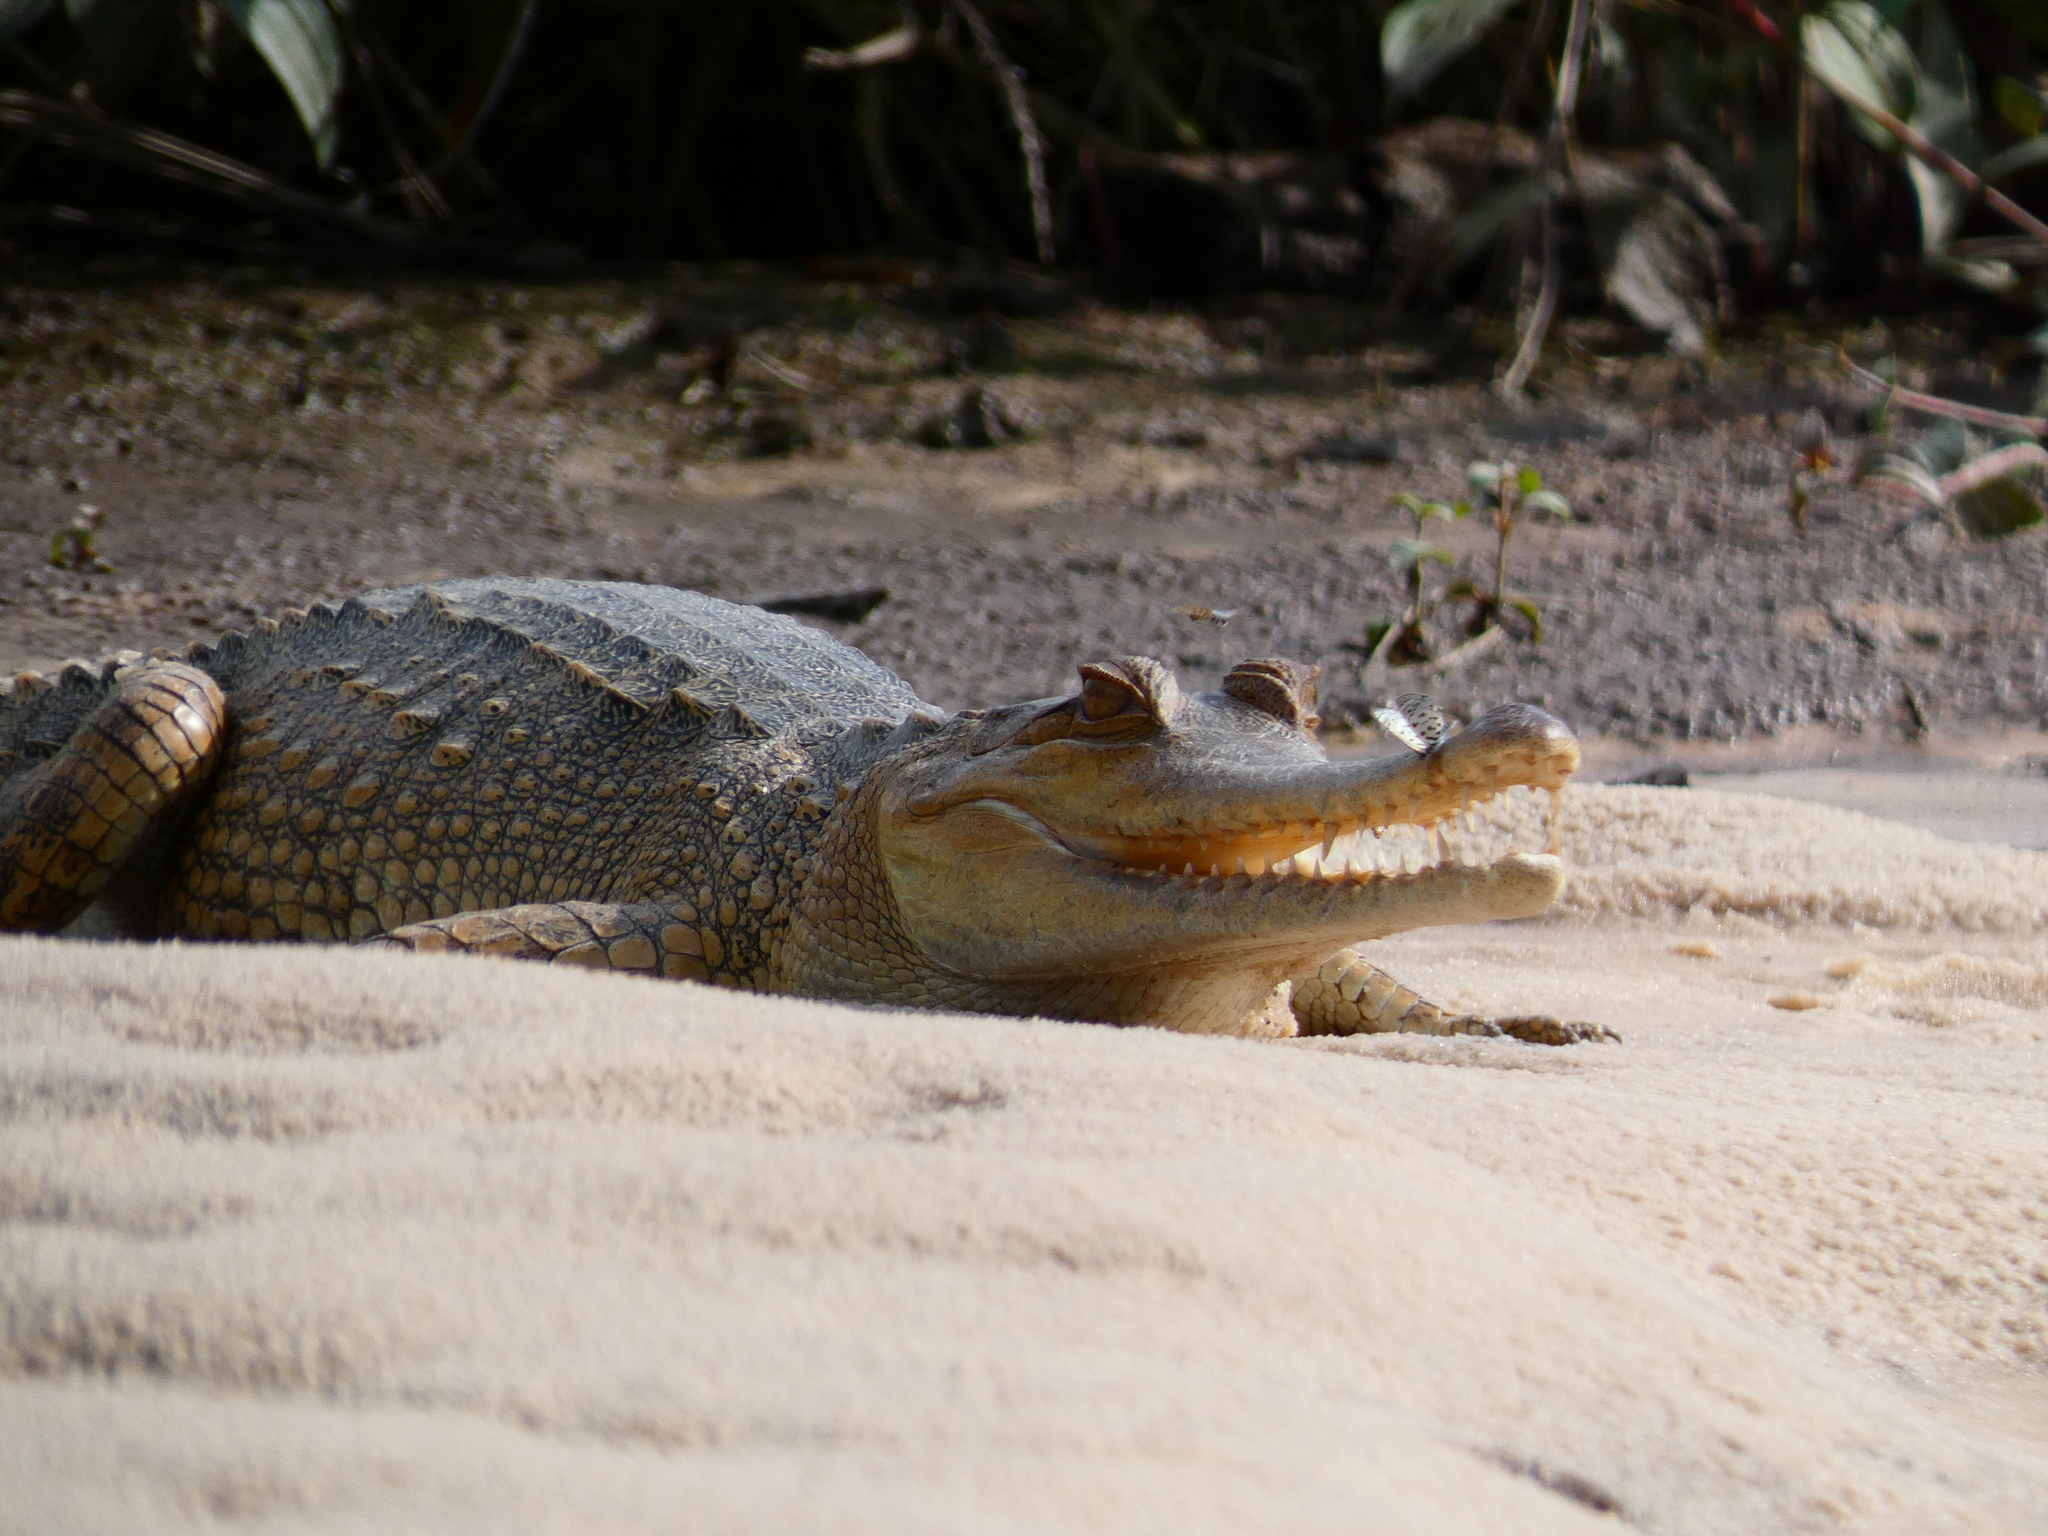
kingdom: Animalia
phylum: Chordata
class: Crocodylia
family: Crocodylidae
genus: Mecistops
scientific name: Mecistops leptorhynchus
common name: Central african slender-snouted crocodile
